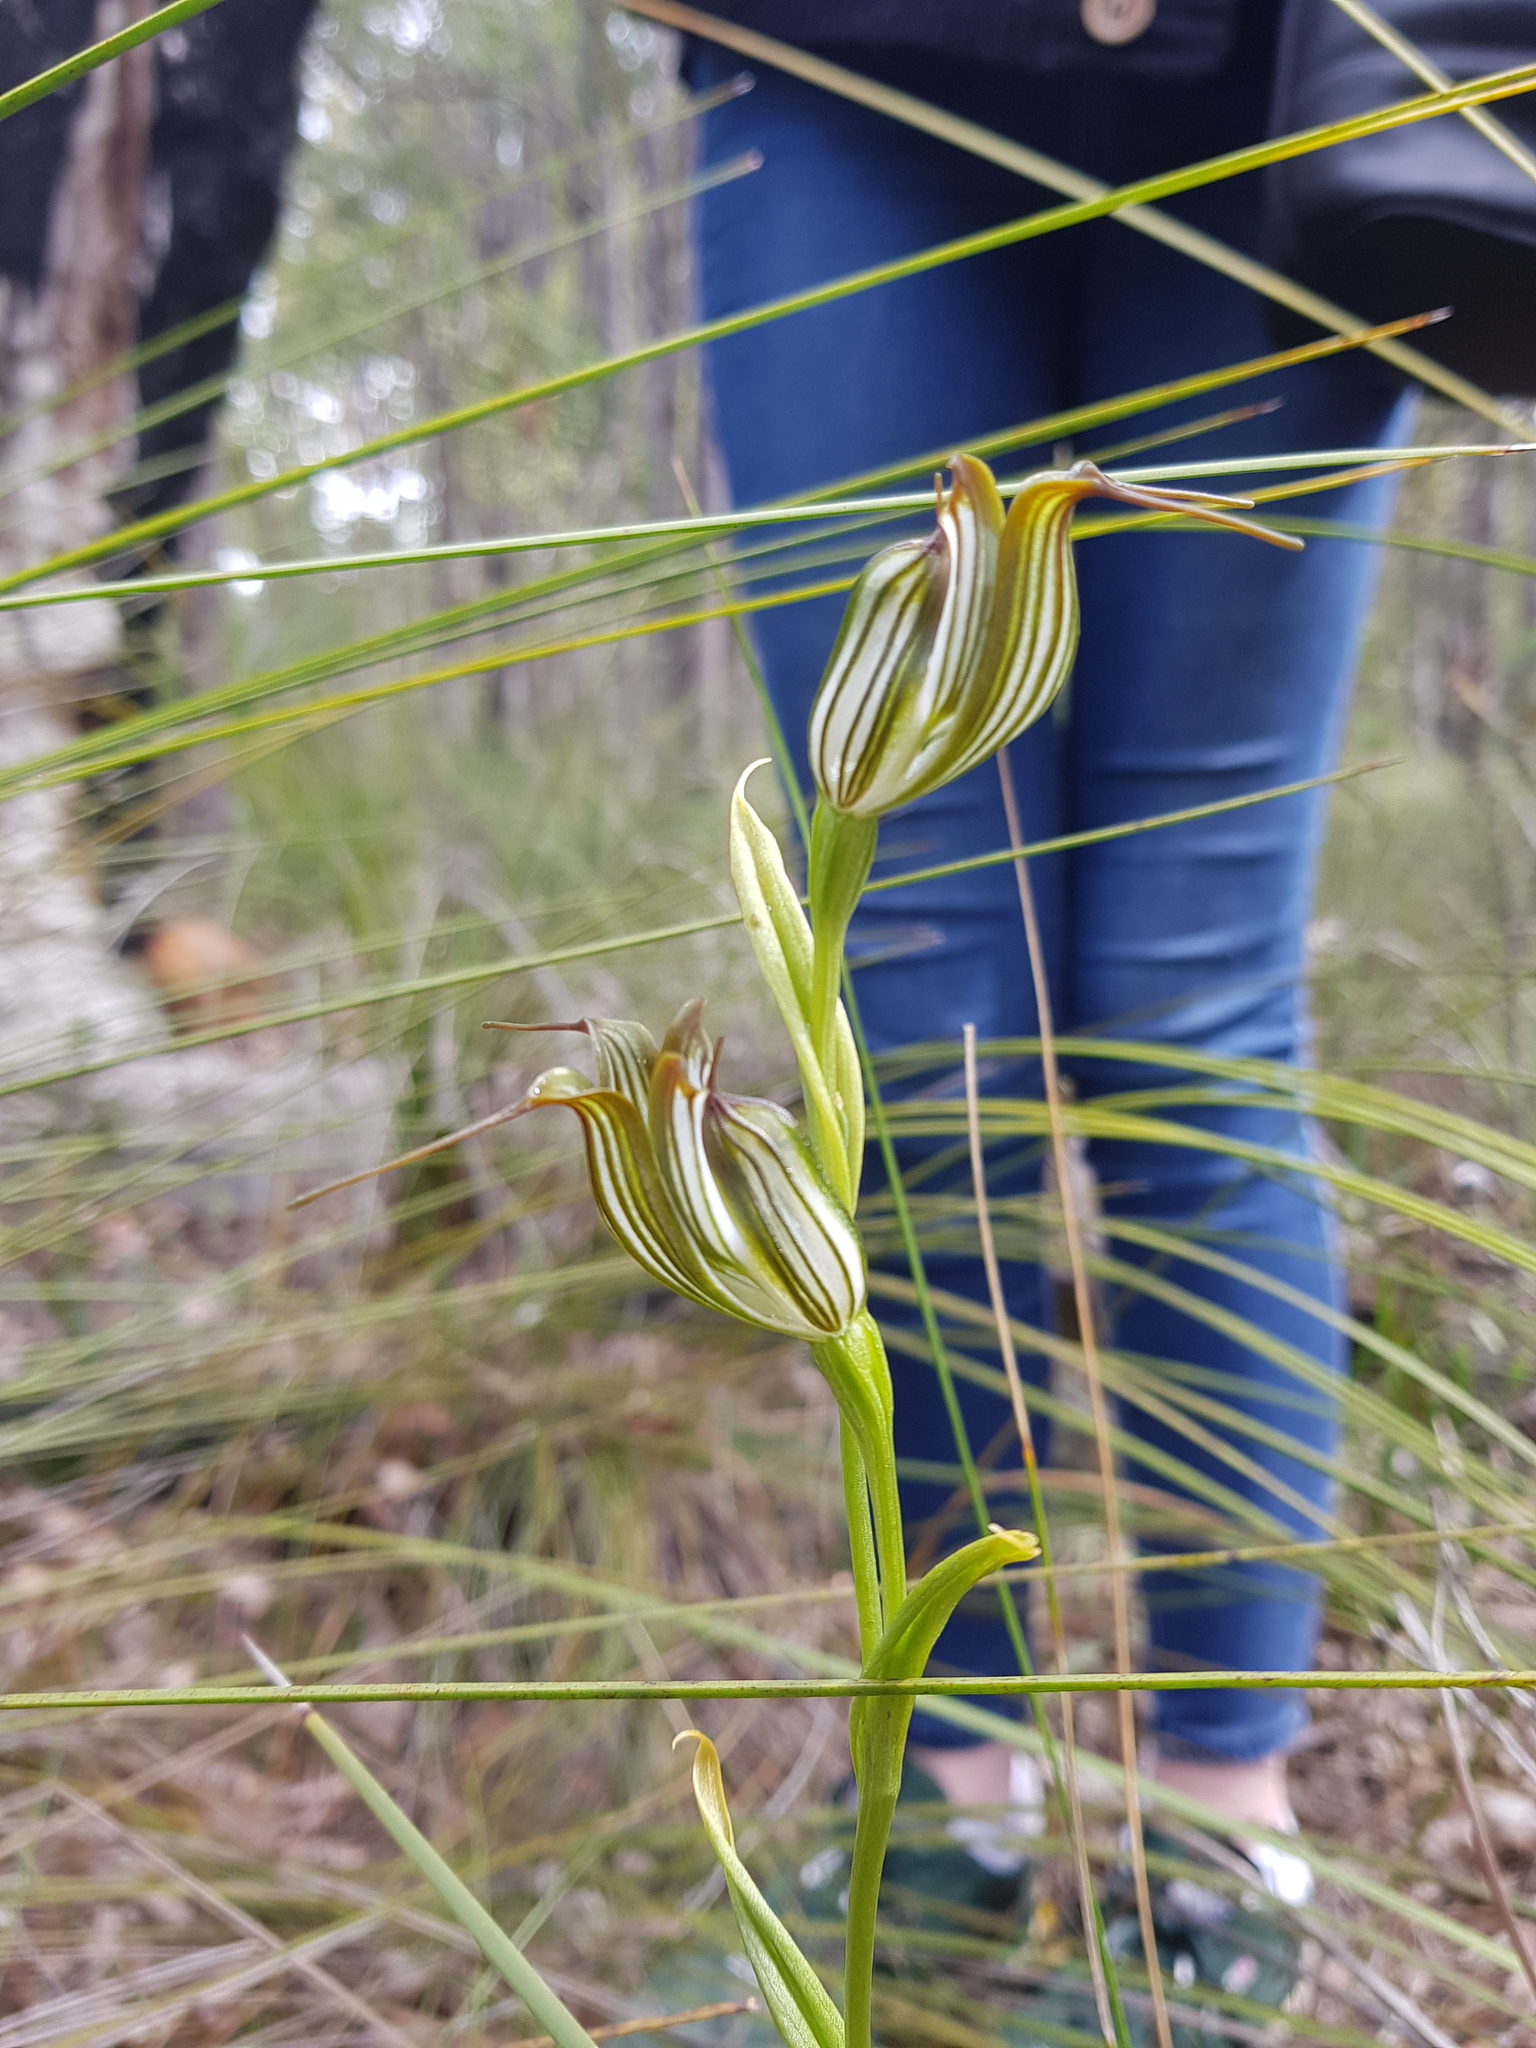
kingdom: Plantae
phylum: Tracheophyta
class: Liliopsida
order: Asparagales
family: Orchidaceae
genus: Pterostylis
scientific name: Pterostylis recurva
